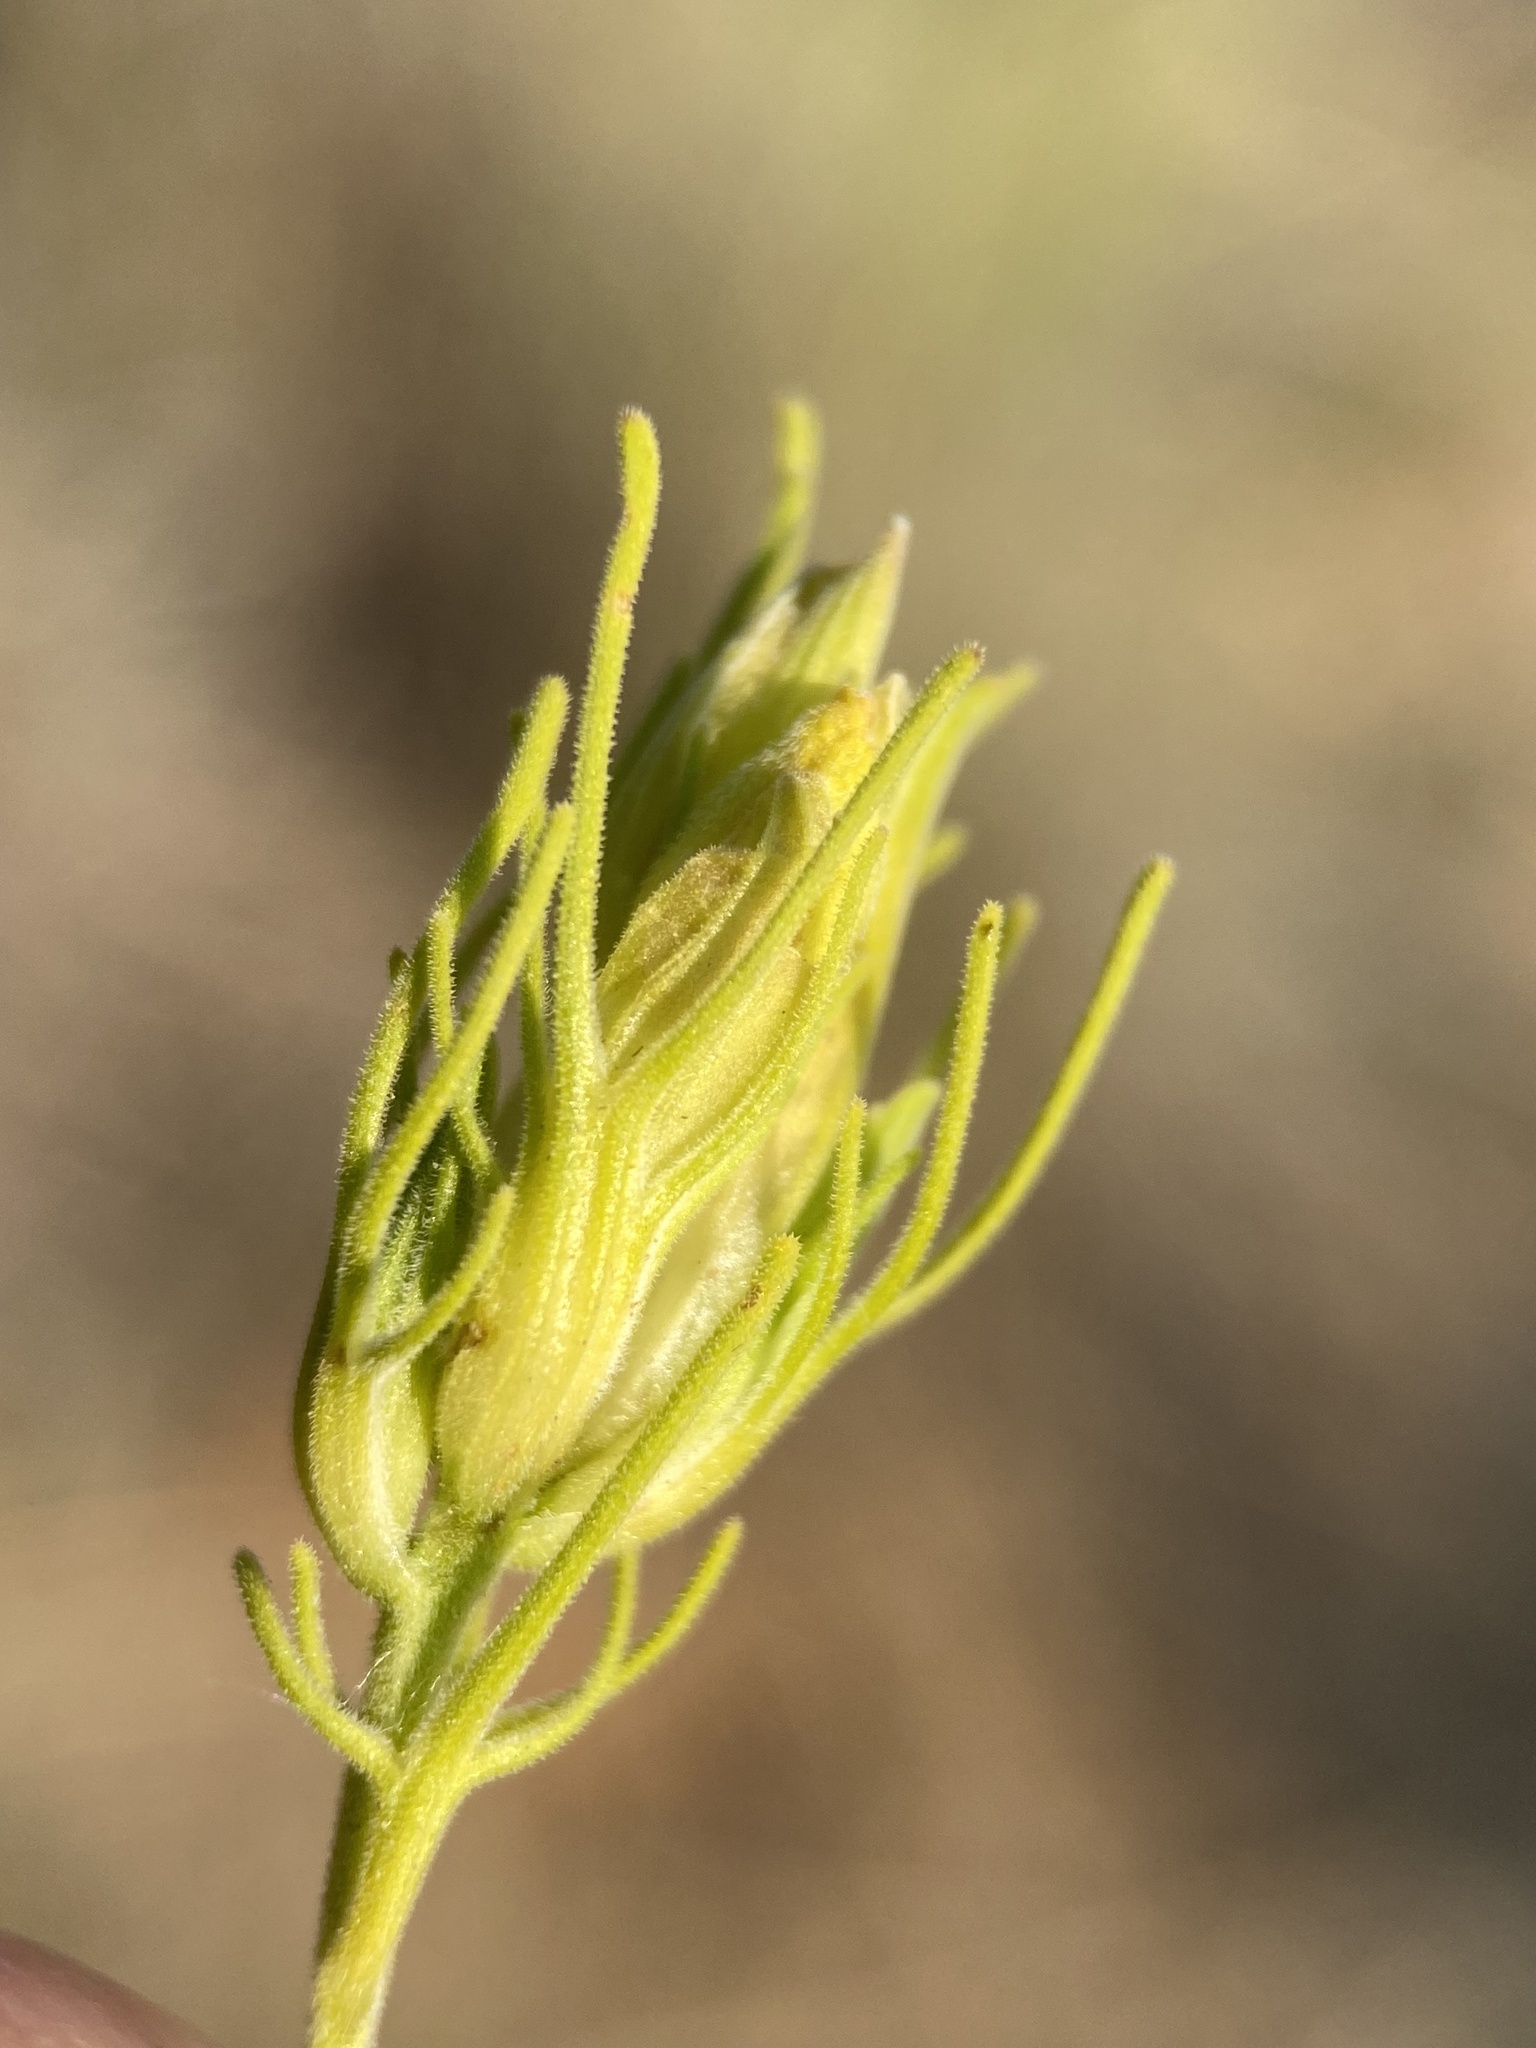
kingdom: Plantae
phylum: Tracheophyta
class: Magnoliopsida
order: Lamiales
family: Orobanchaceae
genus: Cordylanthus
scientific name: Cordylanthus ramosus
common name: Much-branched bird's-beak
